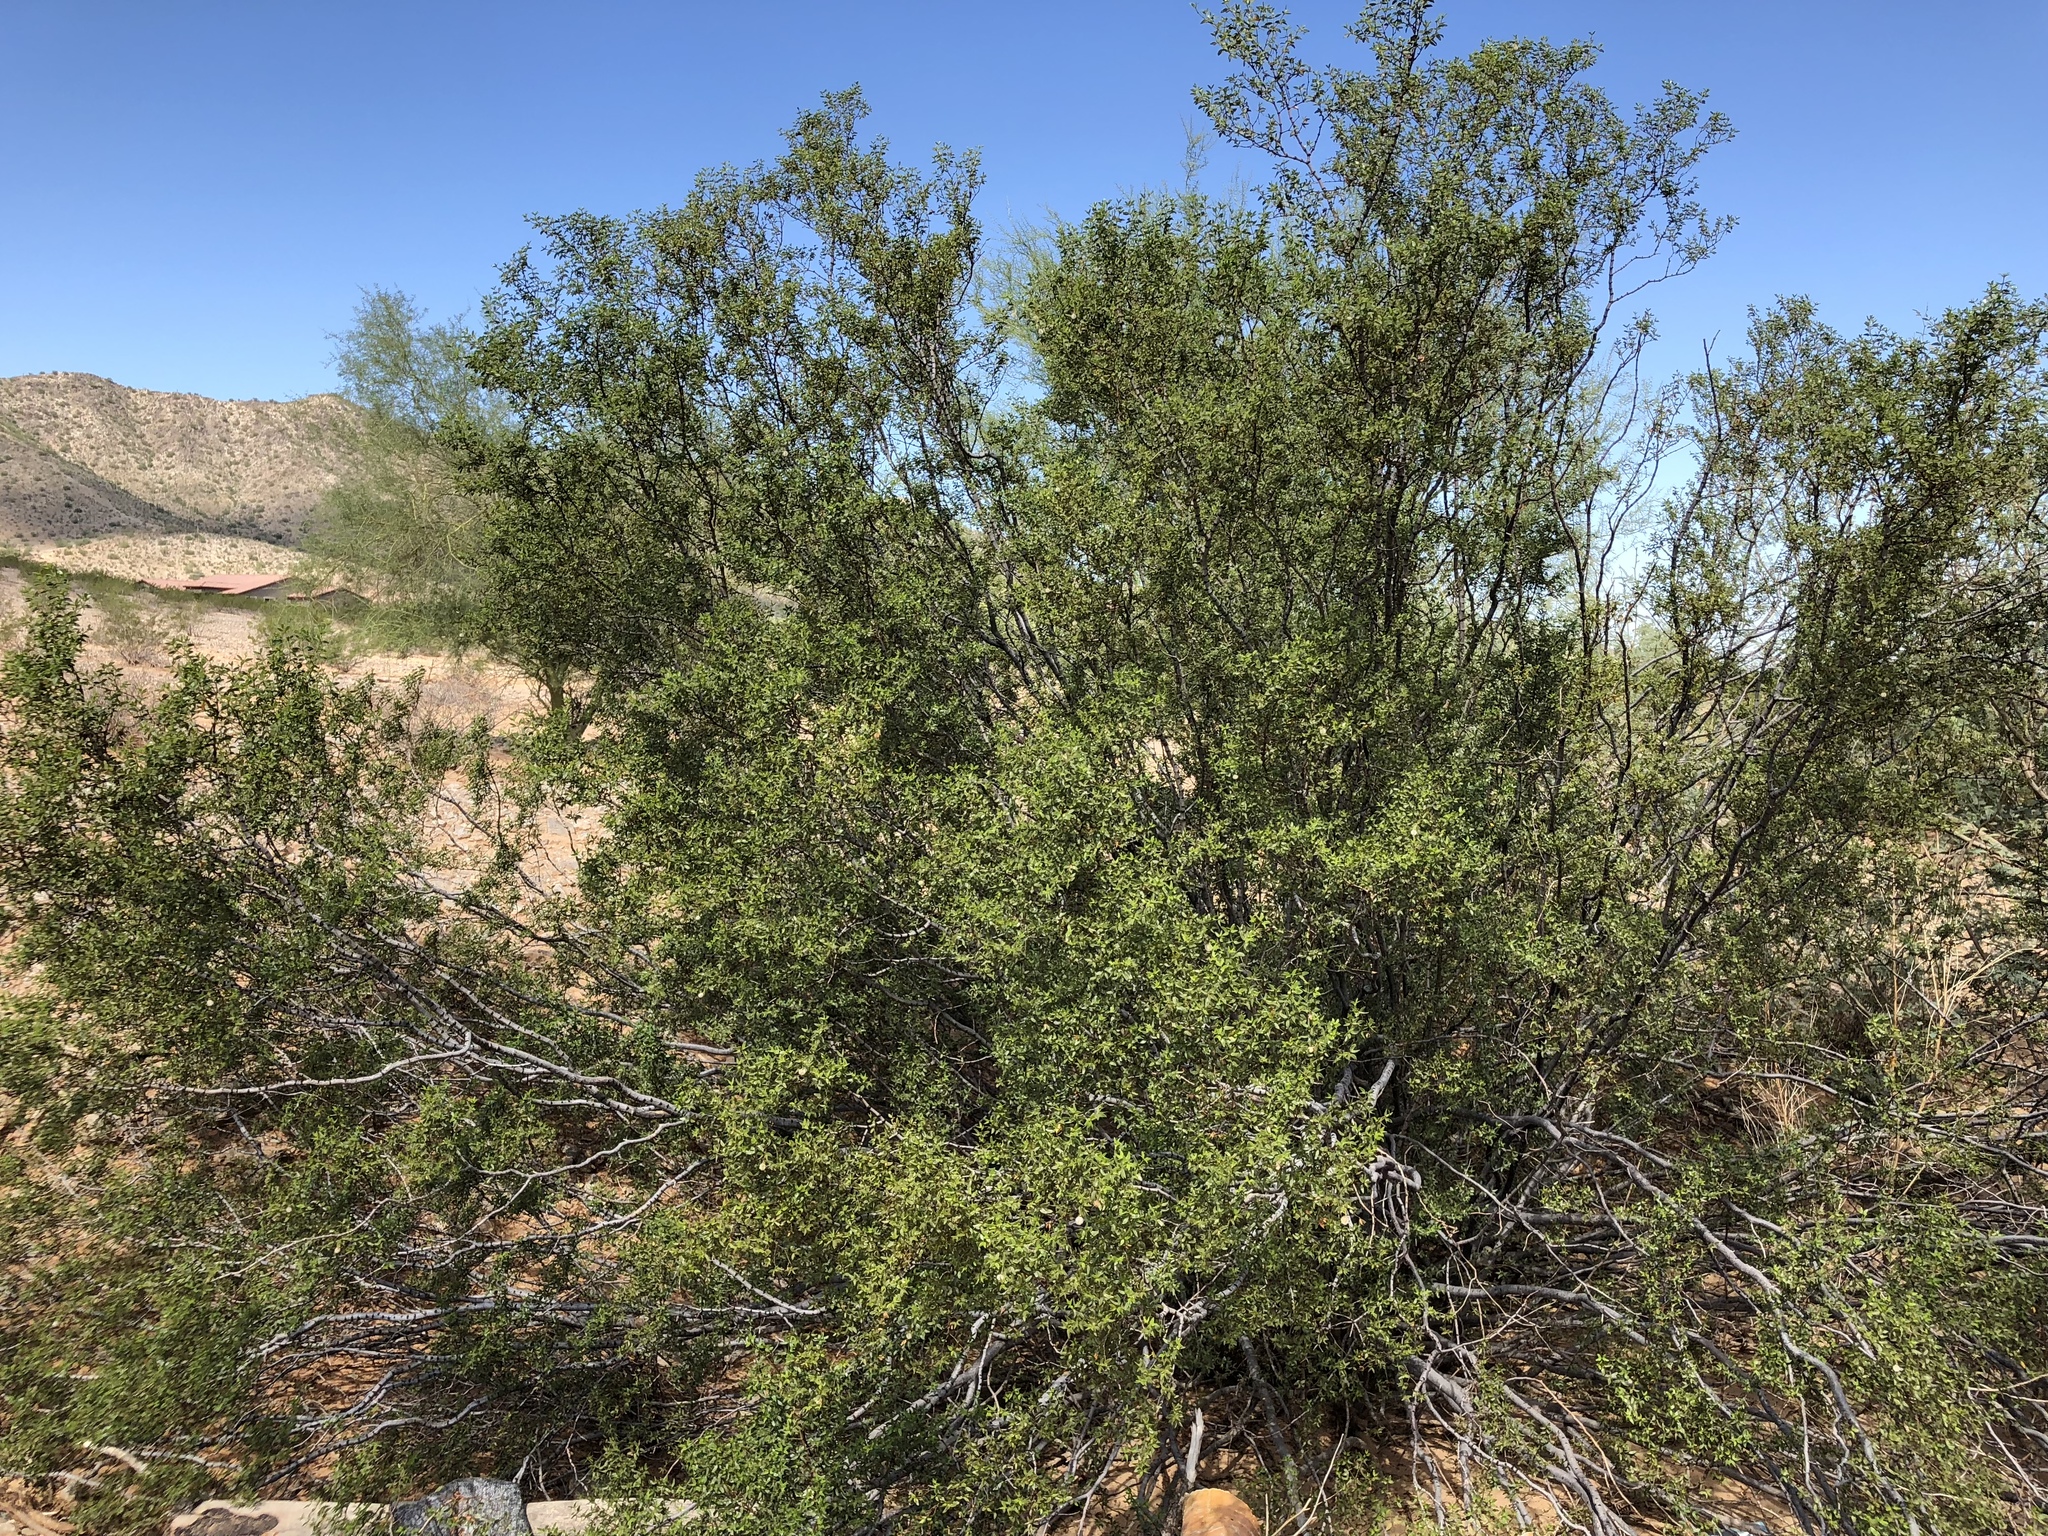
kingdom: Plantae
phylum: Tracheophyta
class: Magnoliopsida
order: Zygophyllales
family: Zygophyllaceae
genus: Larrea
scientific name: Larrea tridentata
